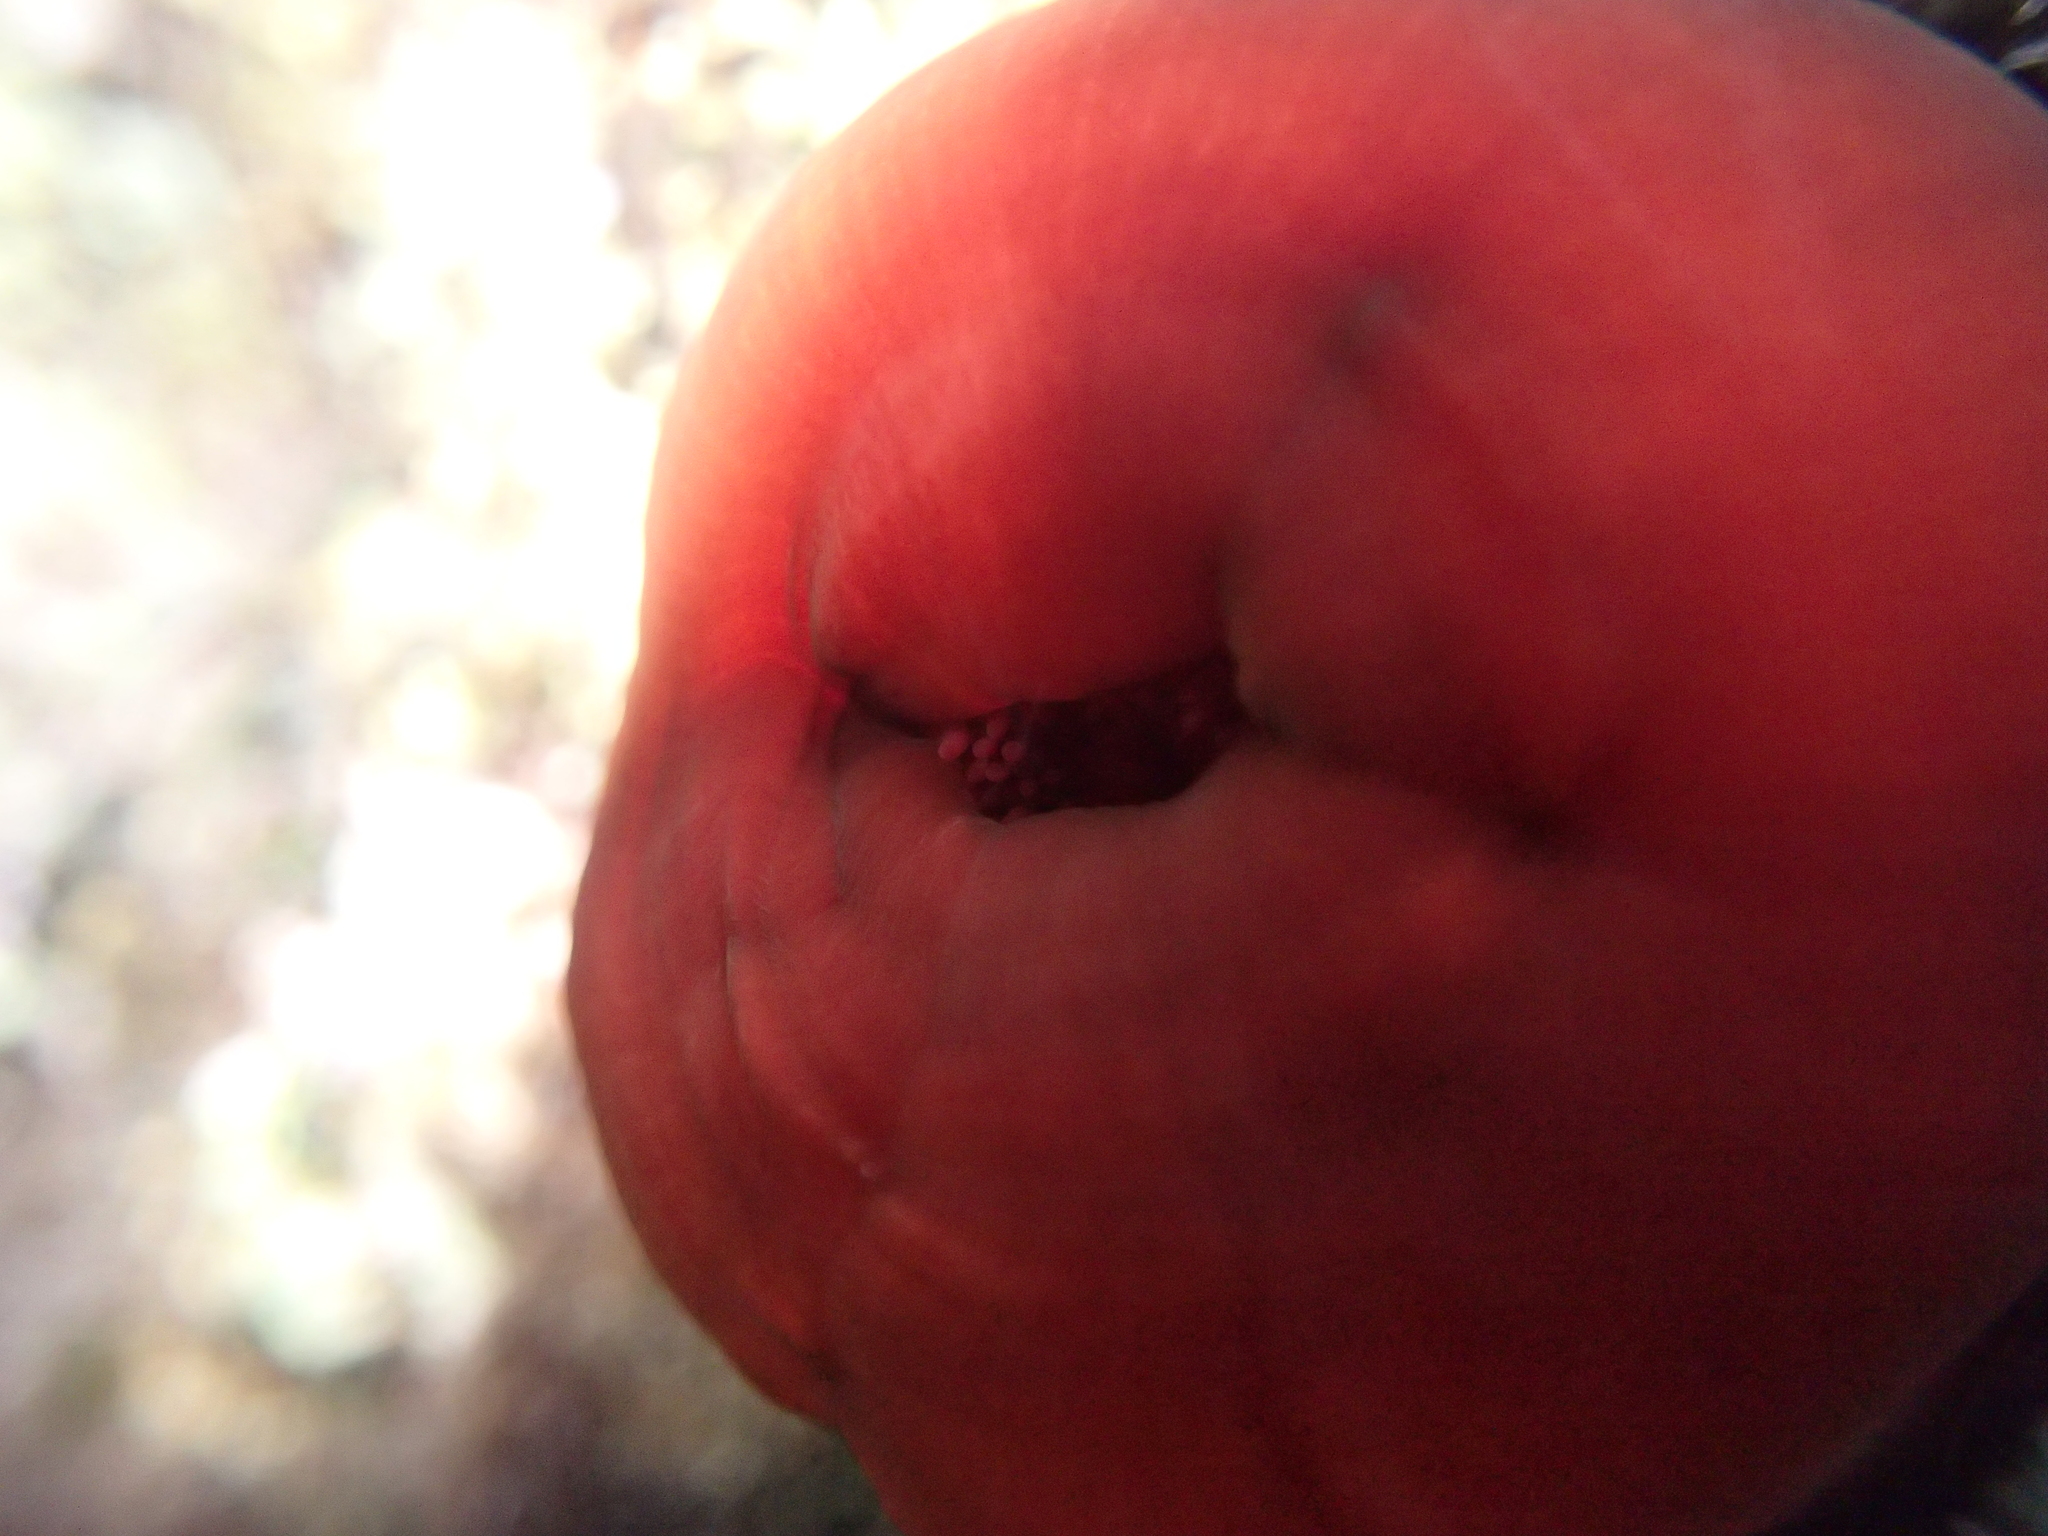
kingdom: Animalia
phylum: Cnidaria
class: Anthozoa
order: Actiniaria
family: Actiniidae
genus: Actinia
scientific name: Actinia mediterranea
